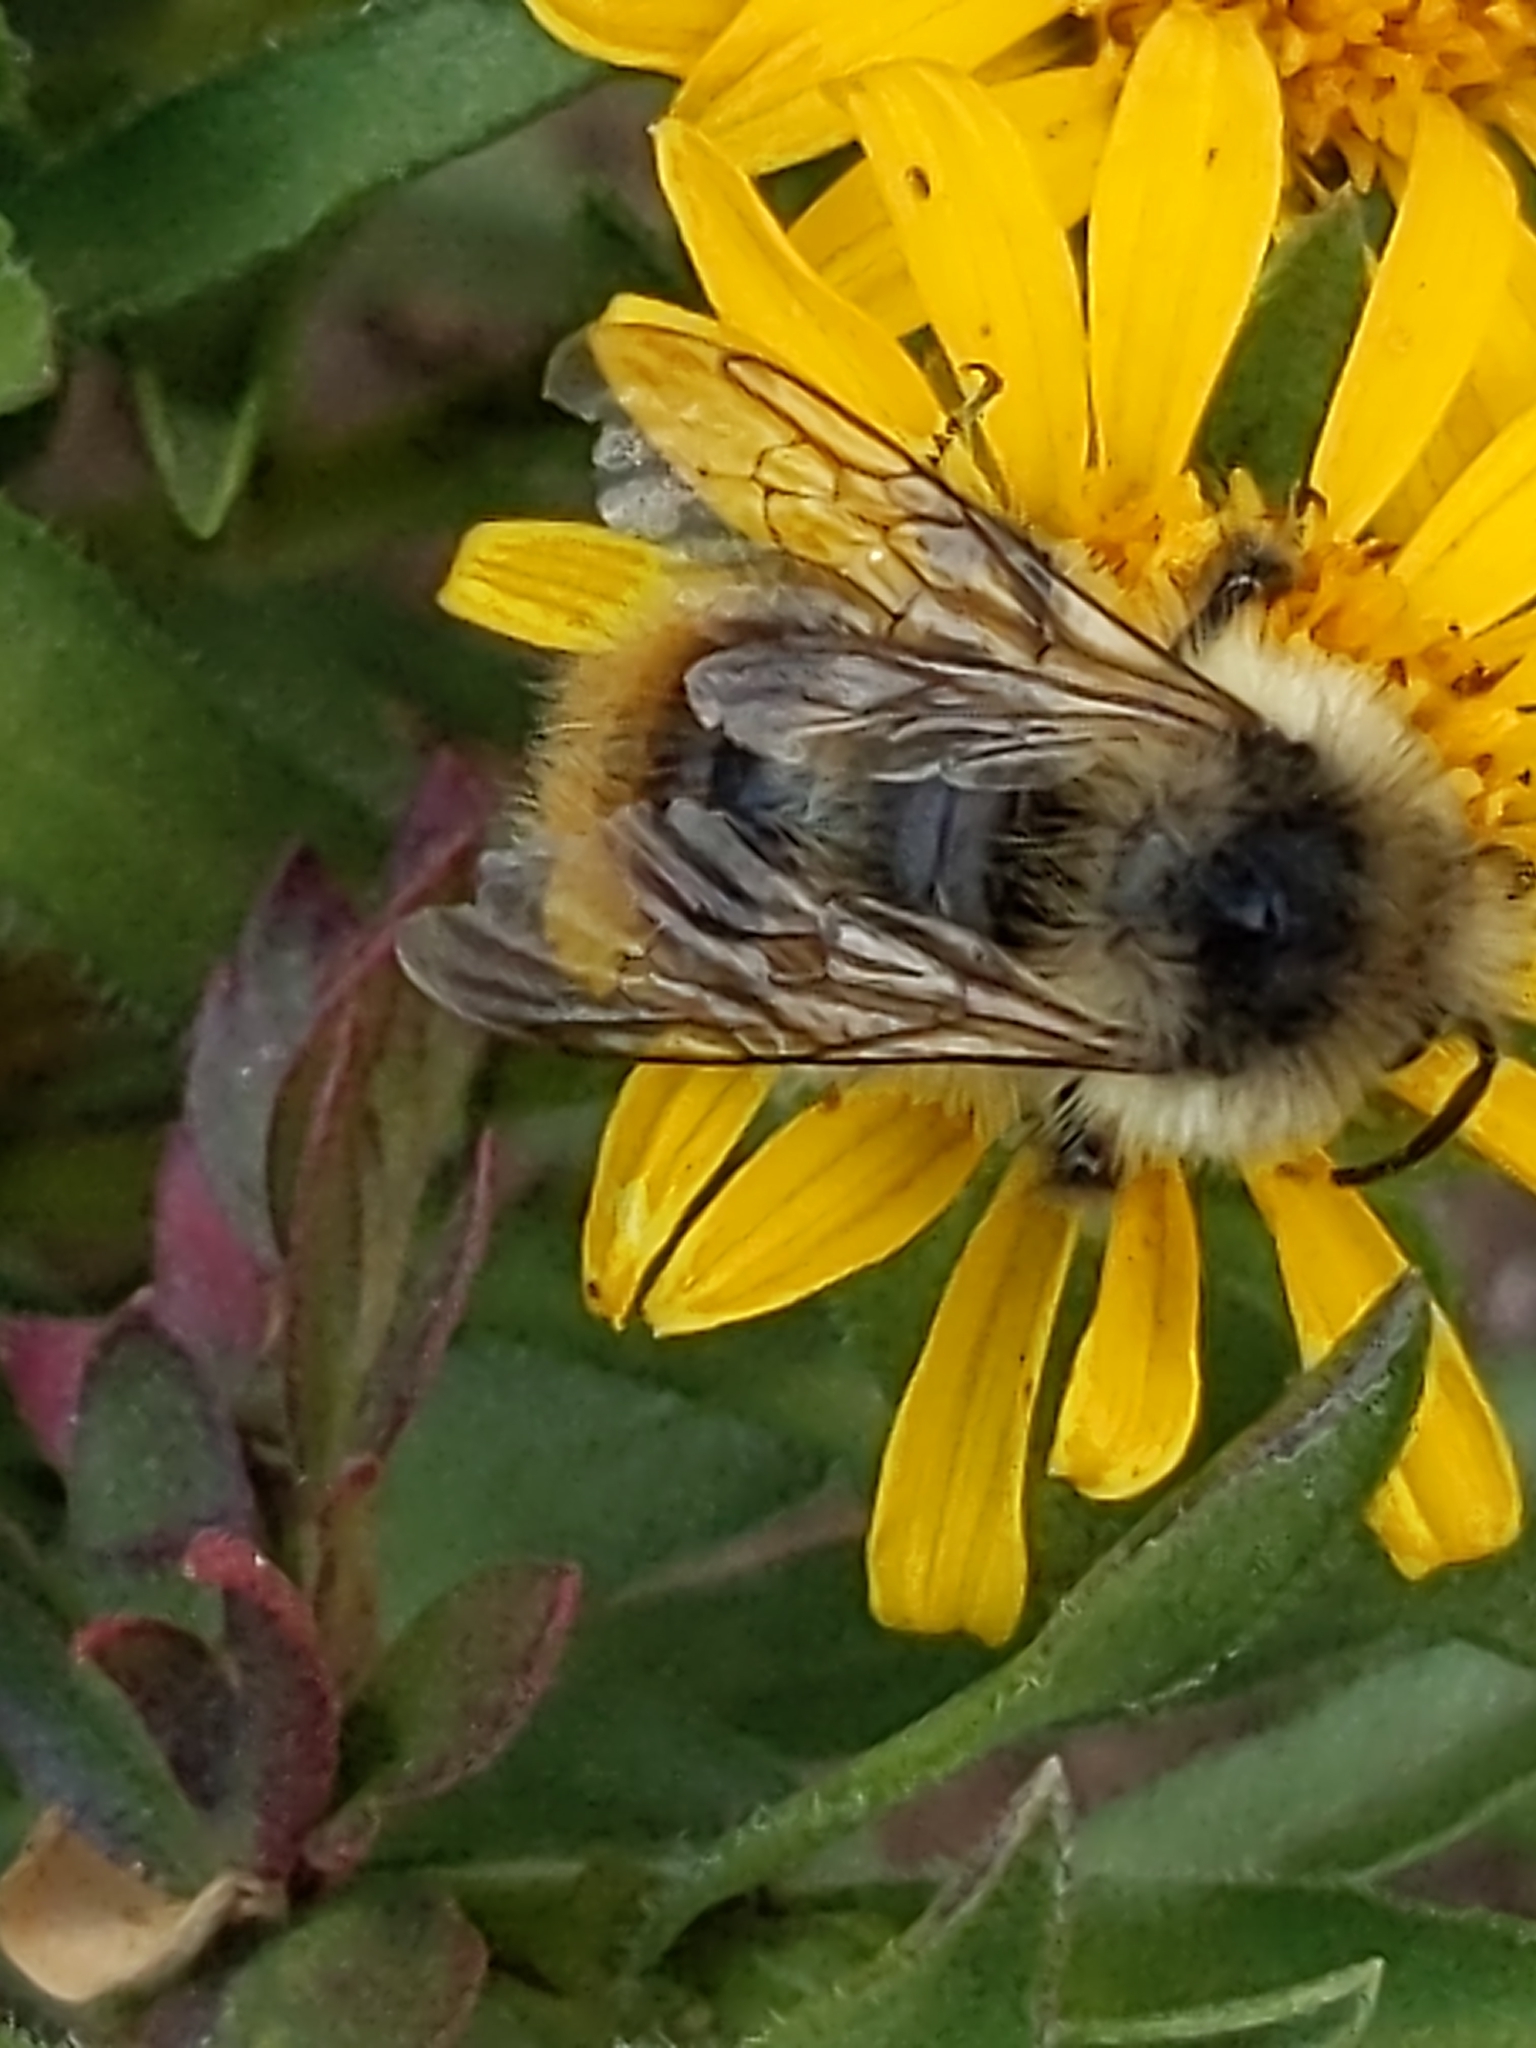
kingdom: Animalia
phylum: Arthropoda
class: Insecta
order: Hymenoptera
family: Apidae
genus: Bombus
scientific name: Bombus mixtus
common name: Fuzzy-horned bumble bee
